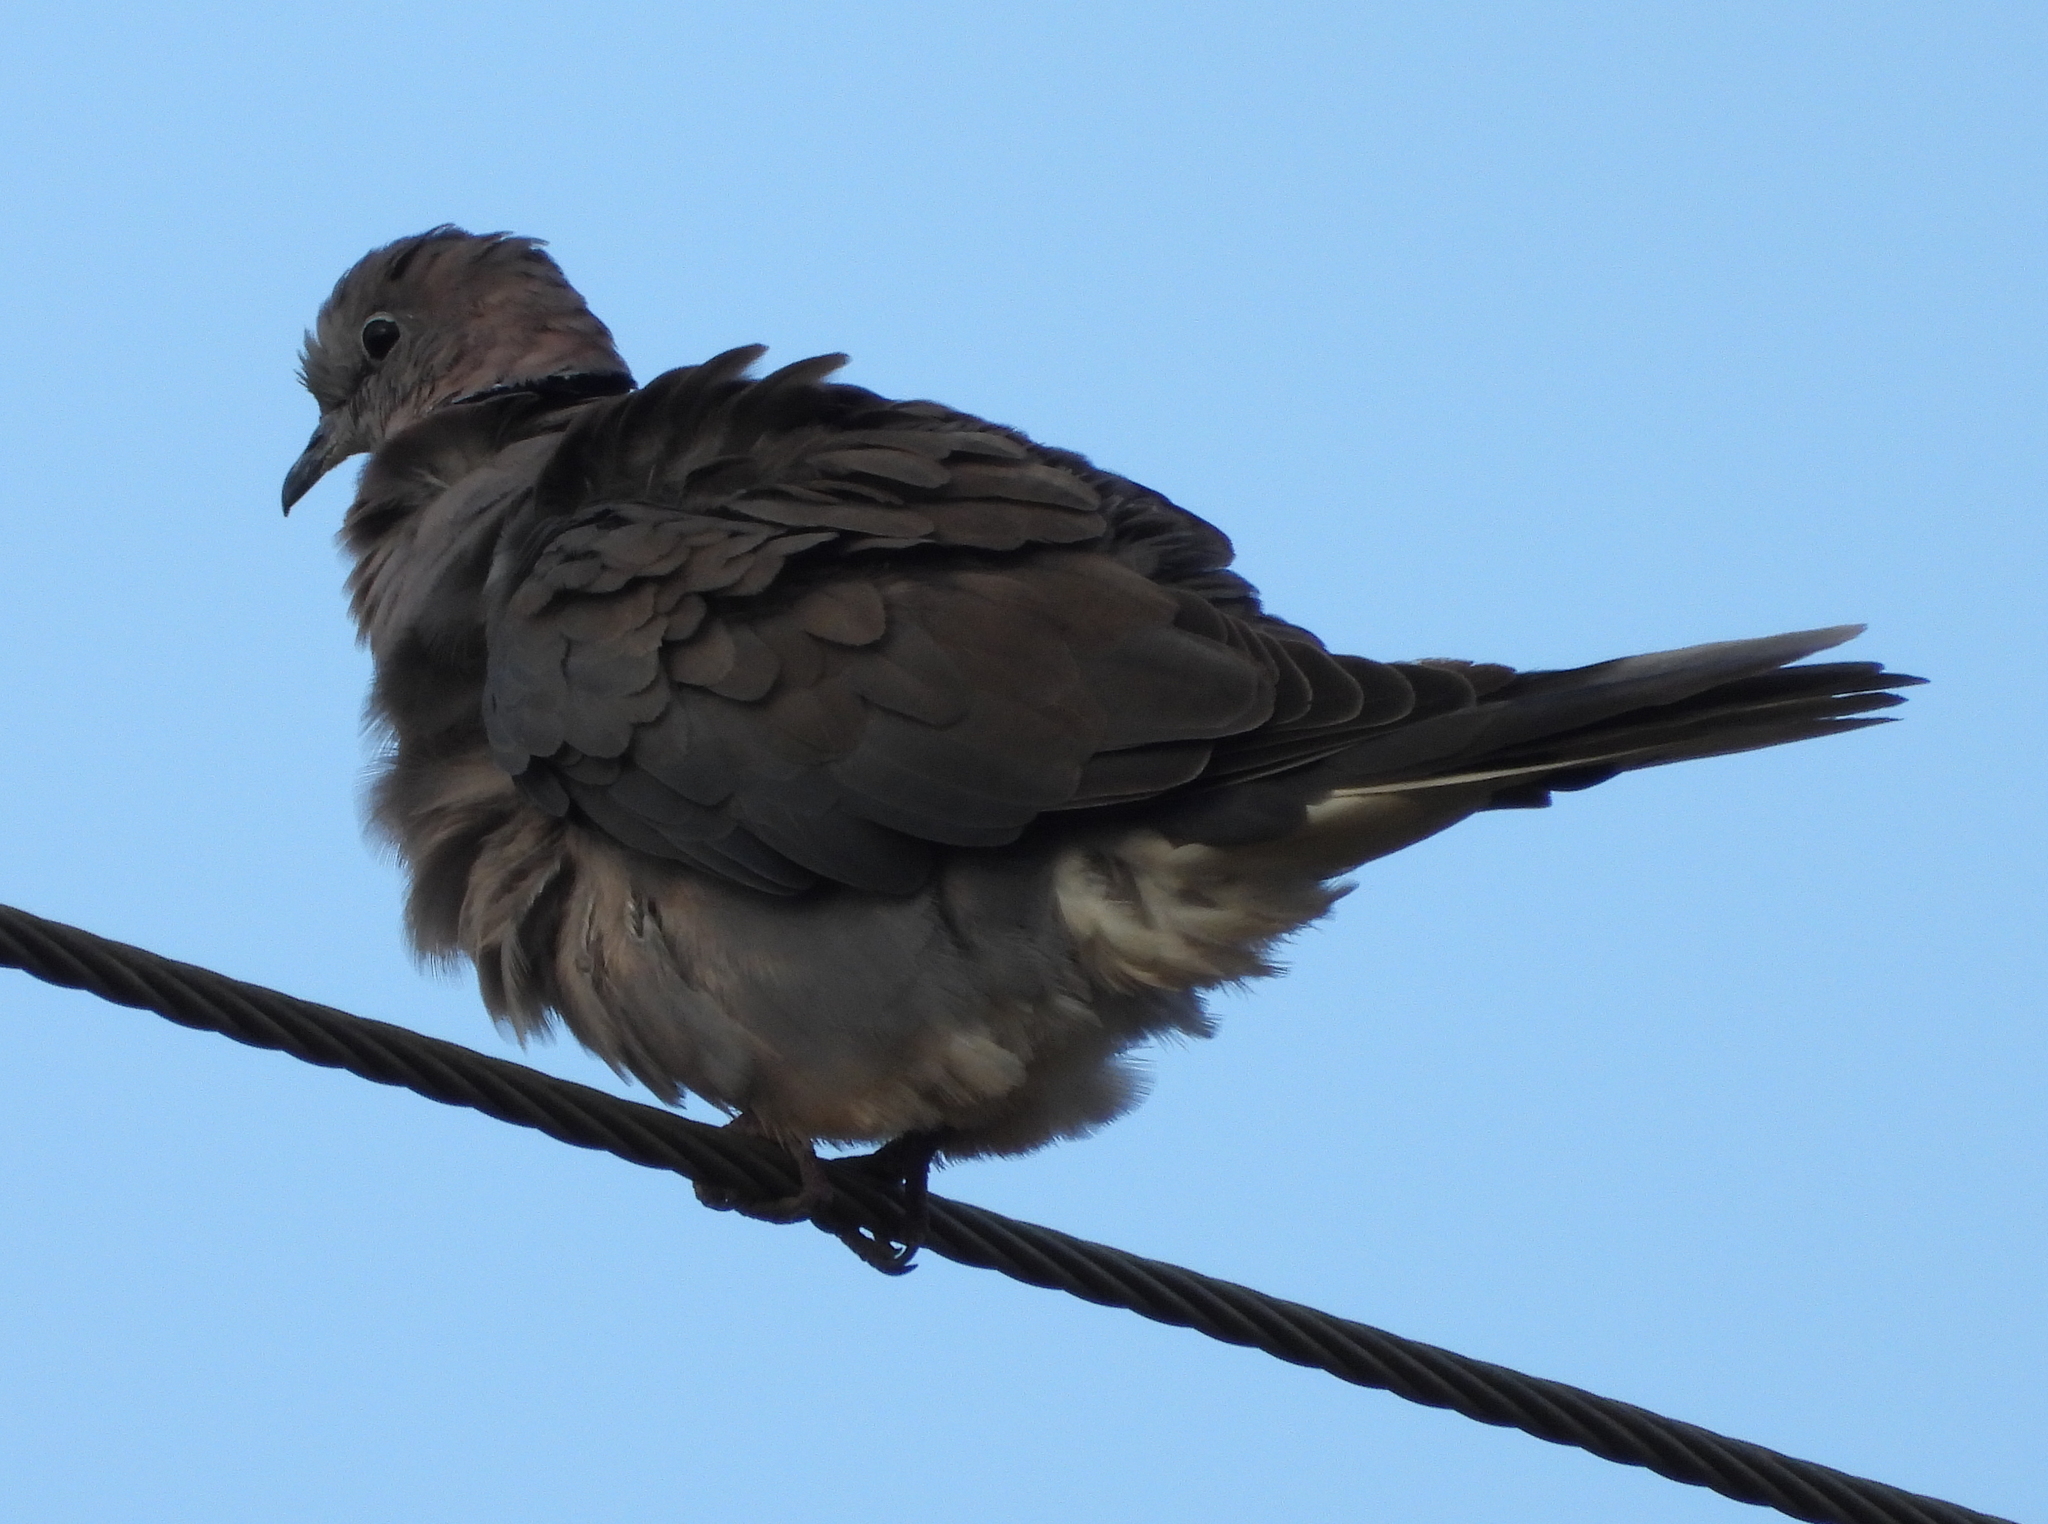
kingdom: Animalia
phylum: Chordata
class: Aves
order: Columbiformes
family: Columbidae
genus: Streptopelia
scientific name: Streptopelia capicola
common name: Ring-necked dove
